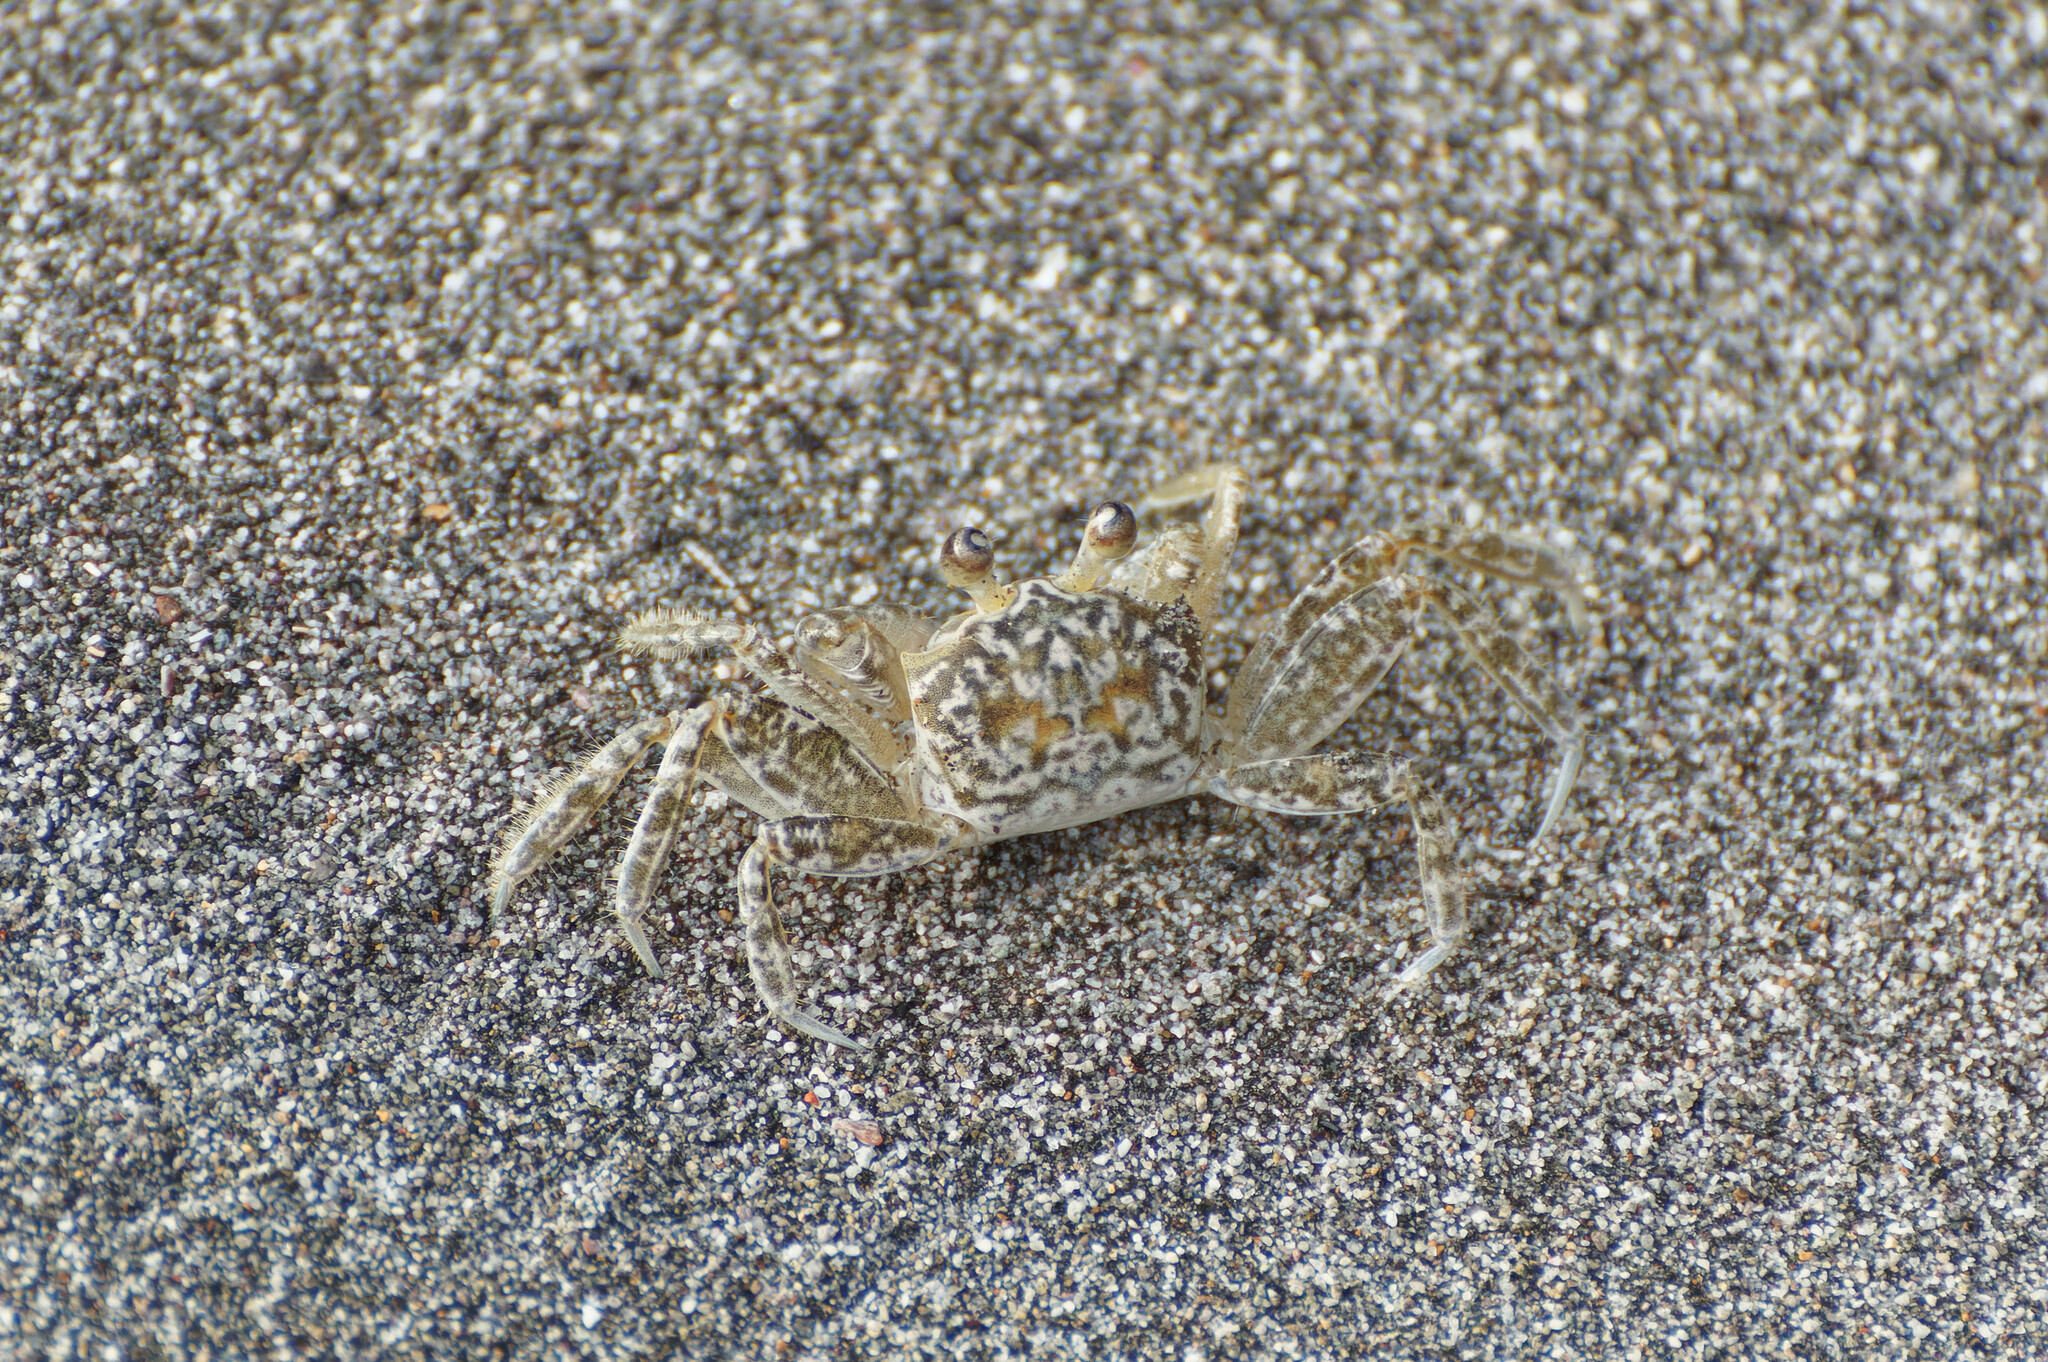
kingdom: Animalia
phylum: Arthropoda
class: Malacostraca
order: Decapoda
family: Ocypodidae
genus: Ocypode
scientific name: Ocypode quadrata
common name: Ghost crab
